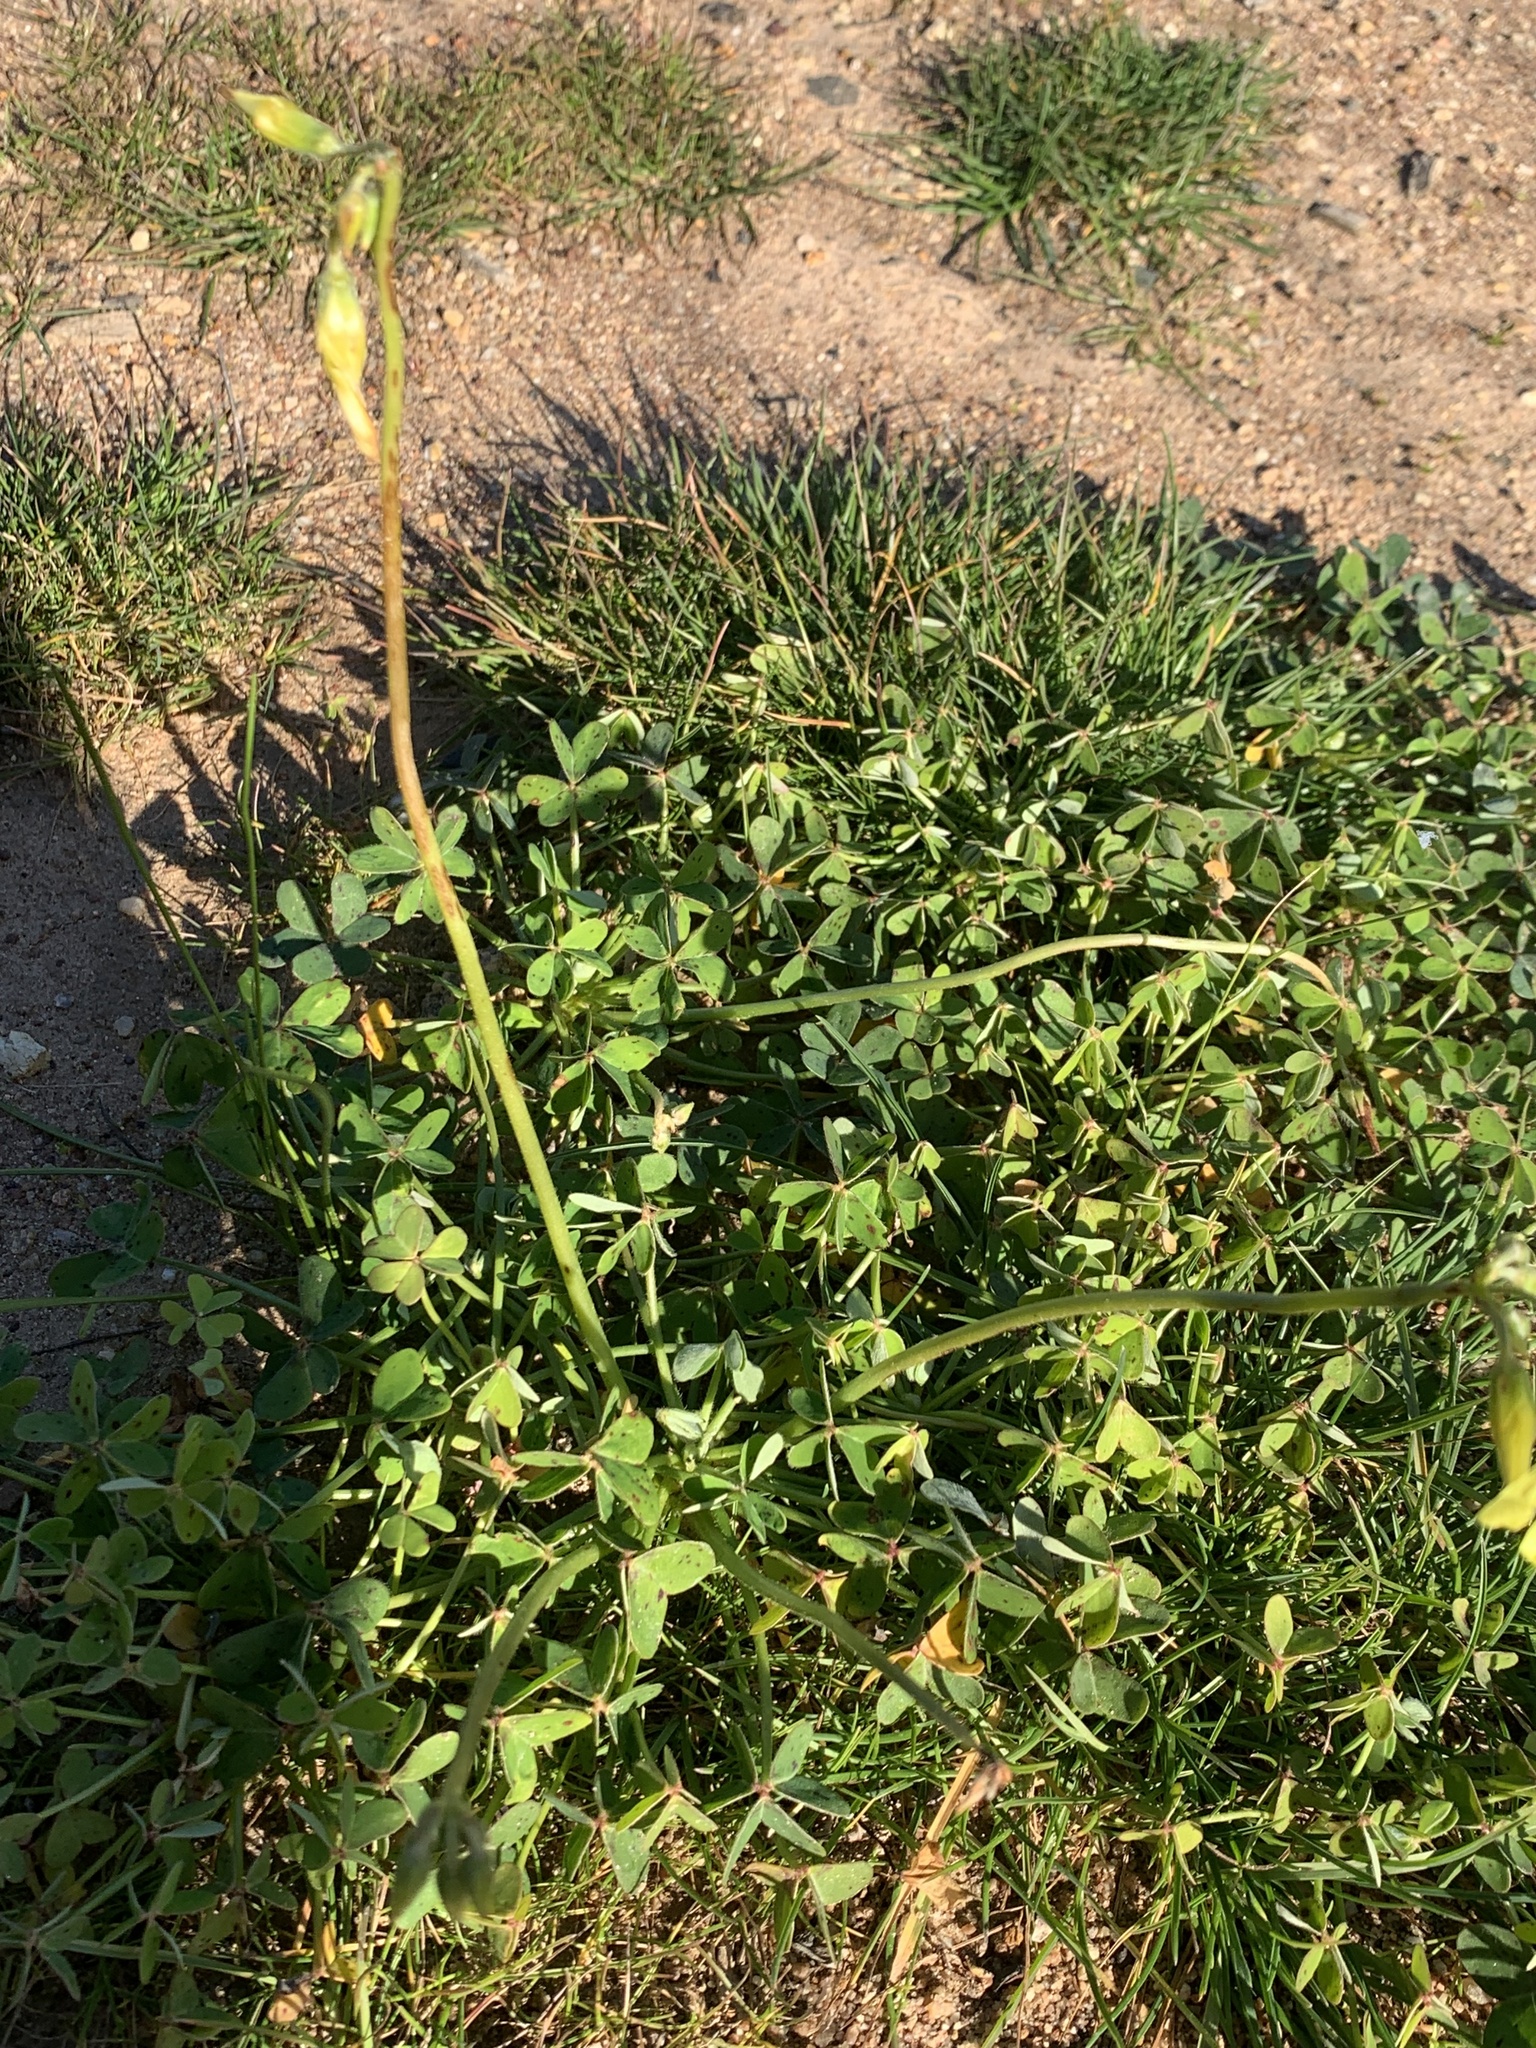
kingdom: Plantae
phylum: Tracheophyta
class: Magnoliopsida
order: Oxalidales
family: Oxalidaceae
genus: Oxalis
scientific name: Oxalis pes-caprae
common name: Bermuda-buttercup
